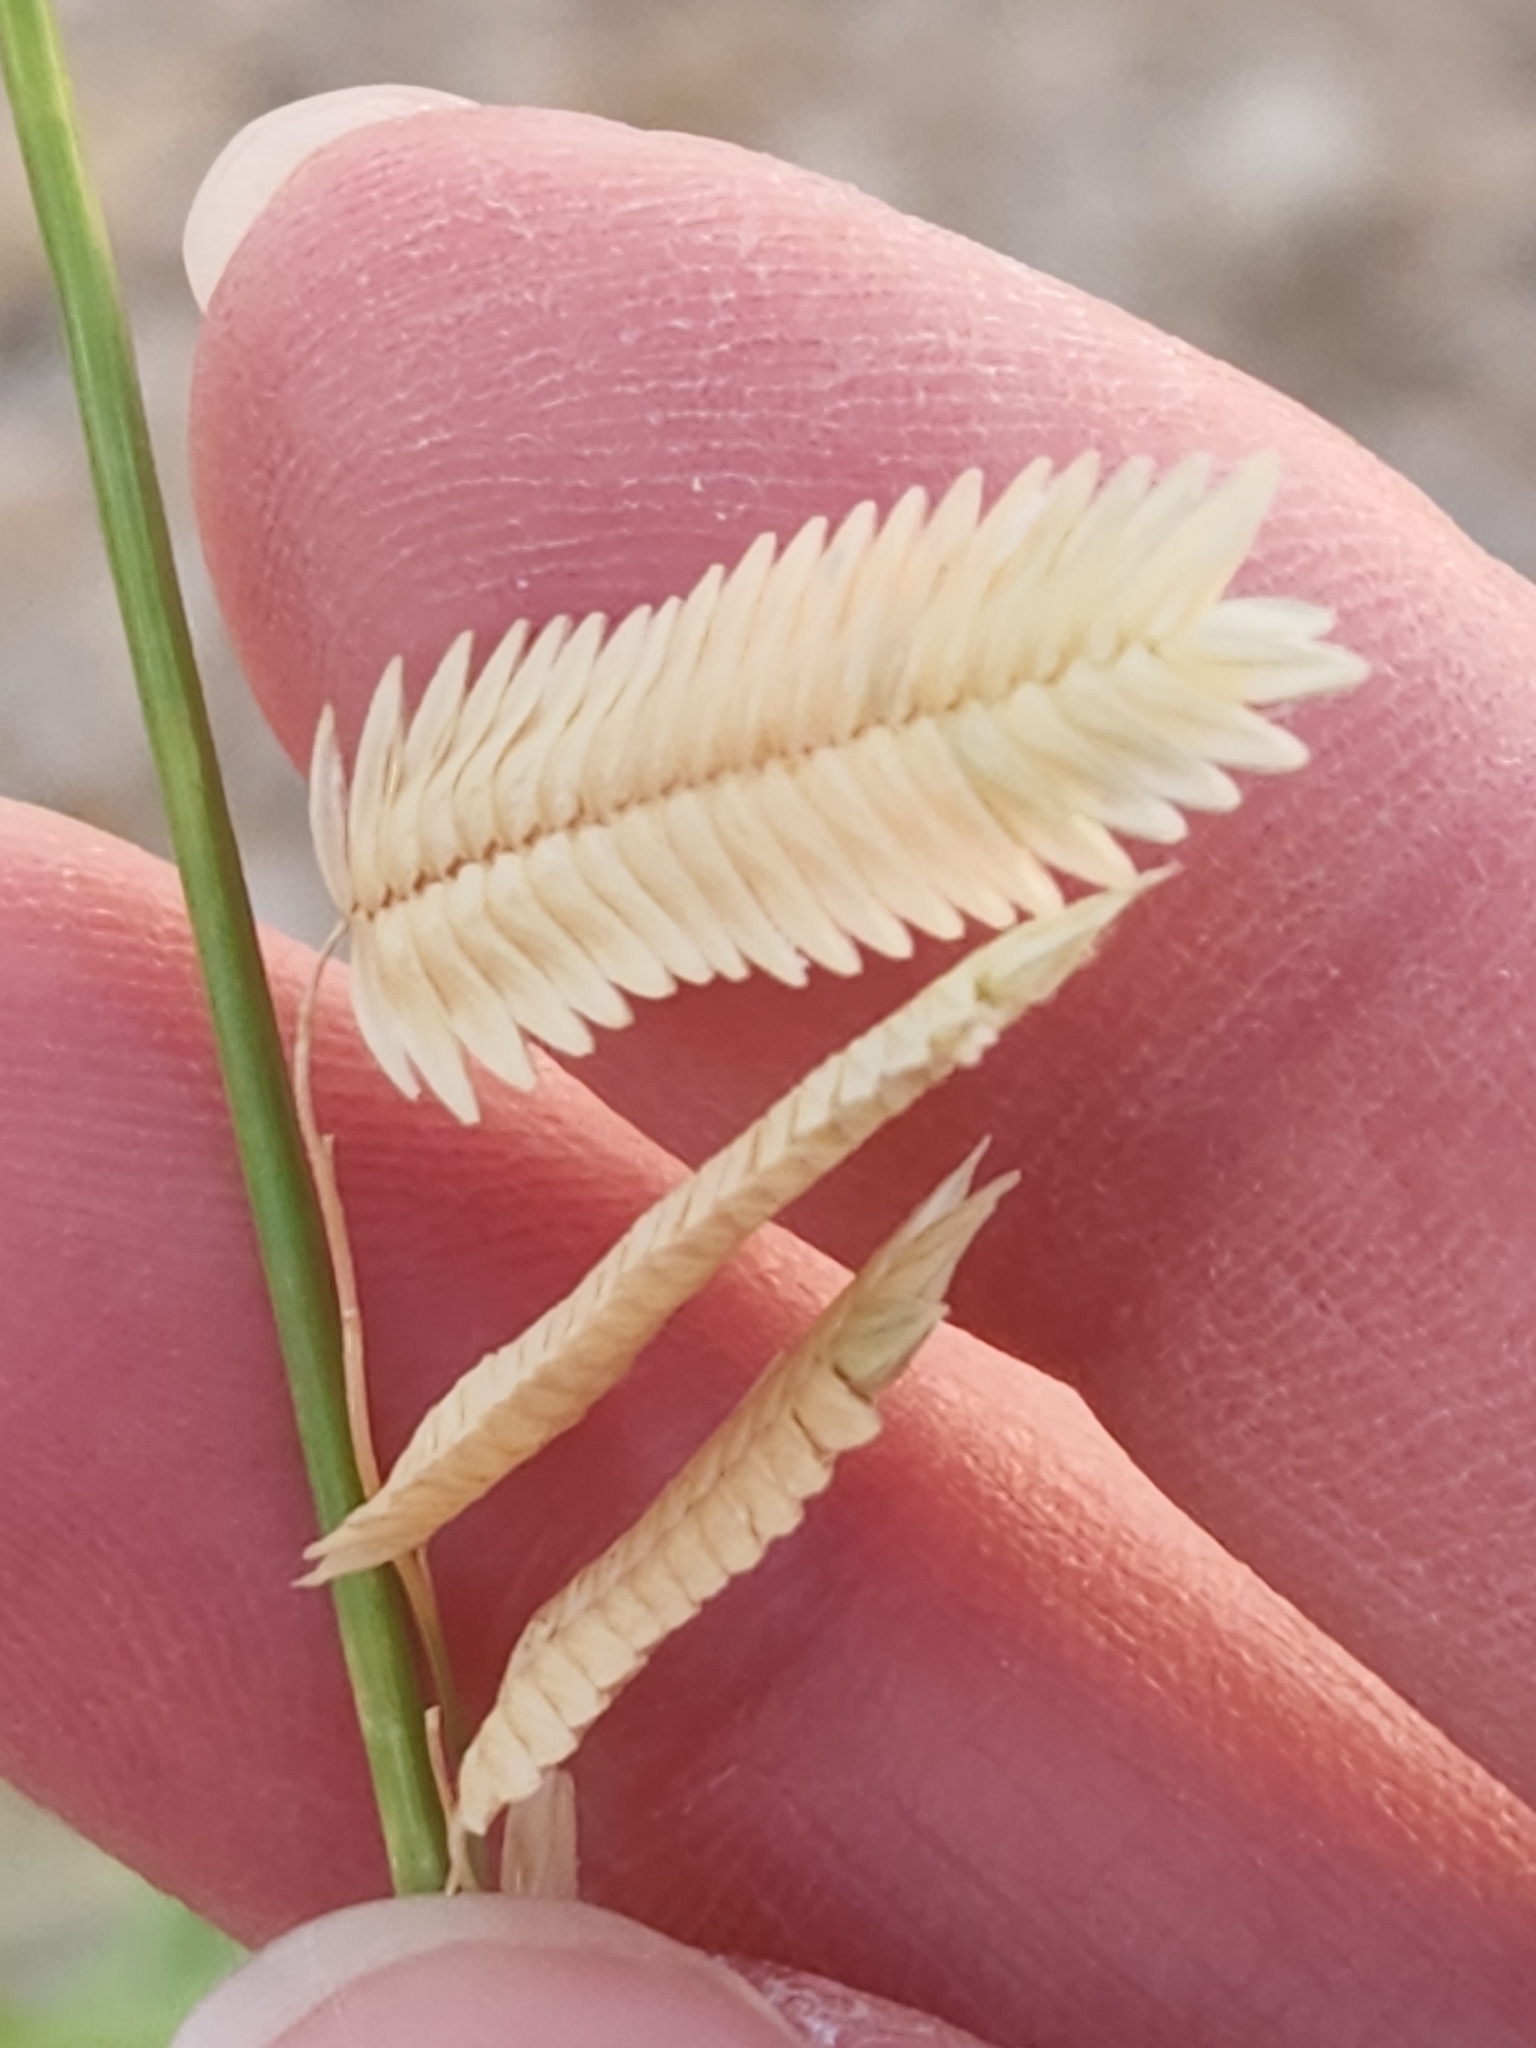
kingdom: Plantae
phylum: Tracheophyta
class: Liliopsida
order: Poales
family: Poaceae
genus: Eragrostis
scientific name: Eragrostis superba
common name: Wilman lovegrass
